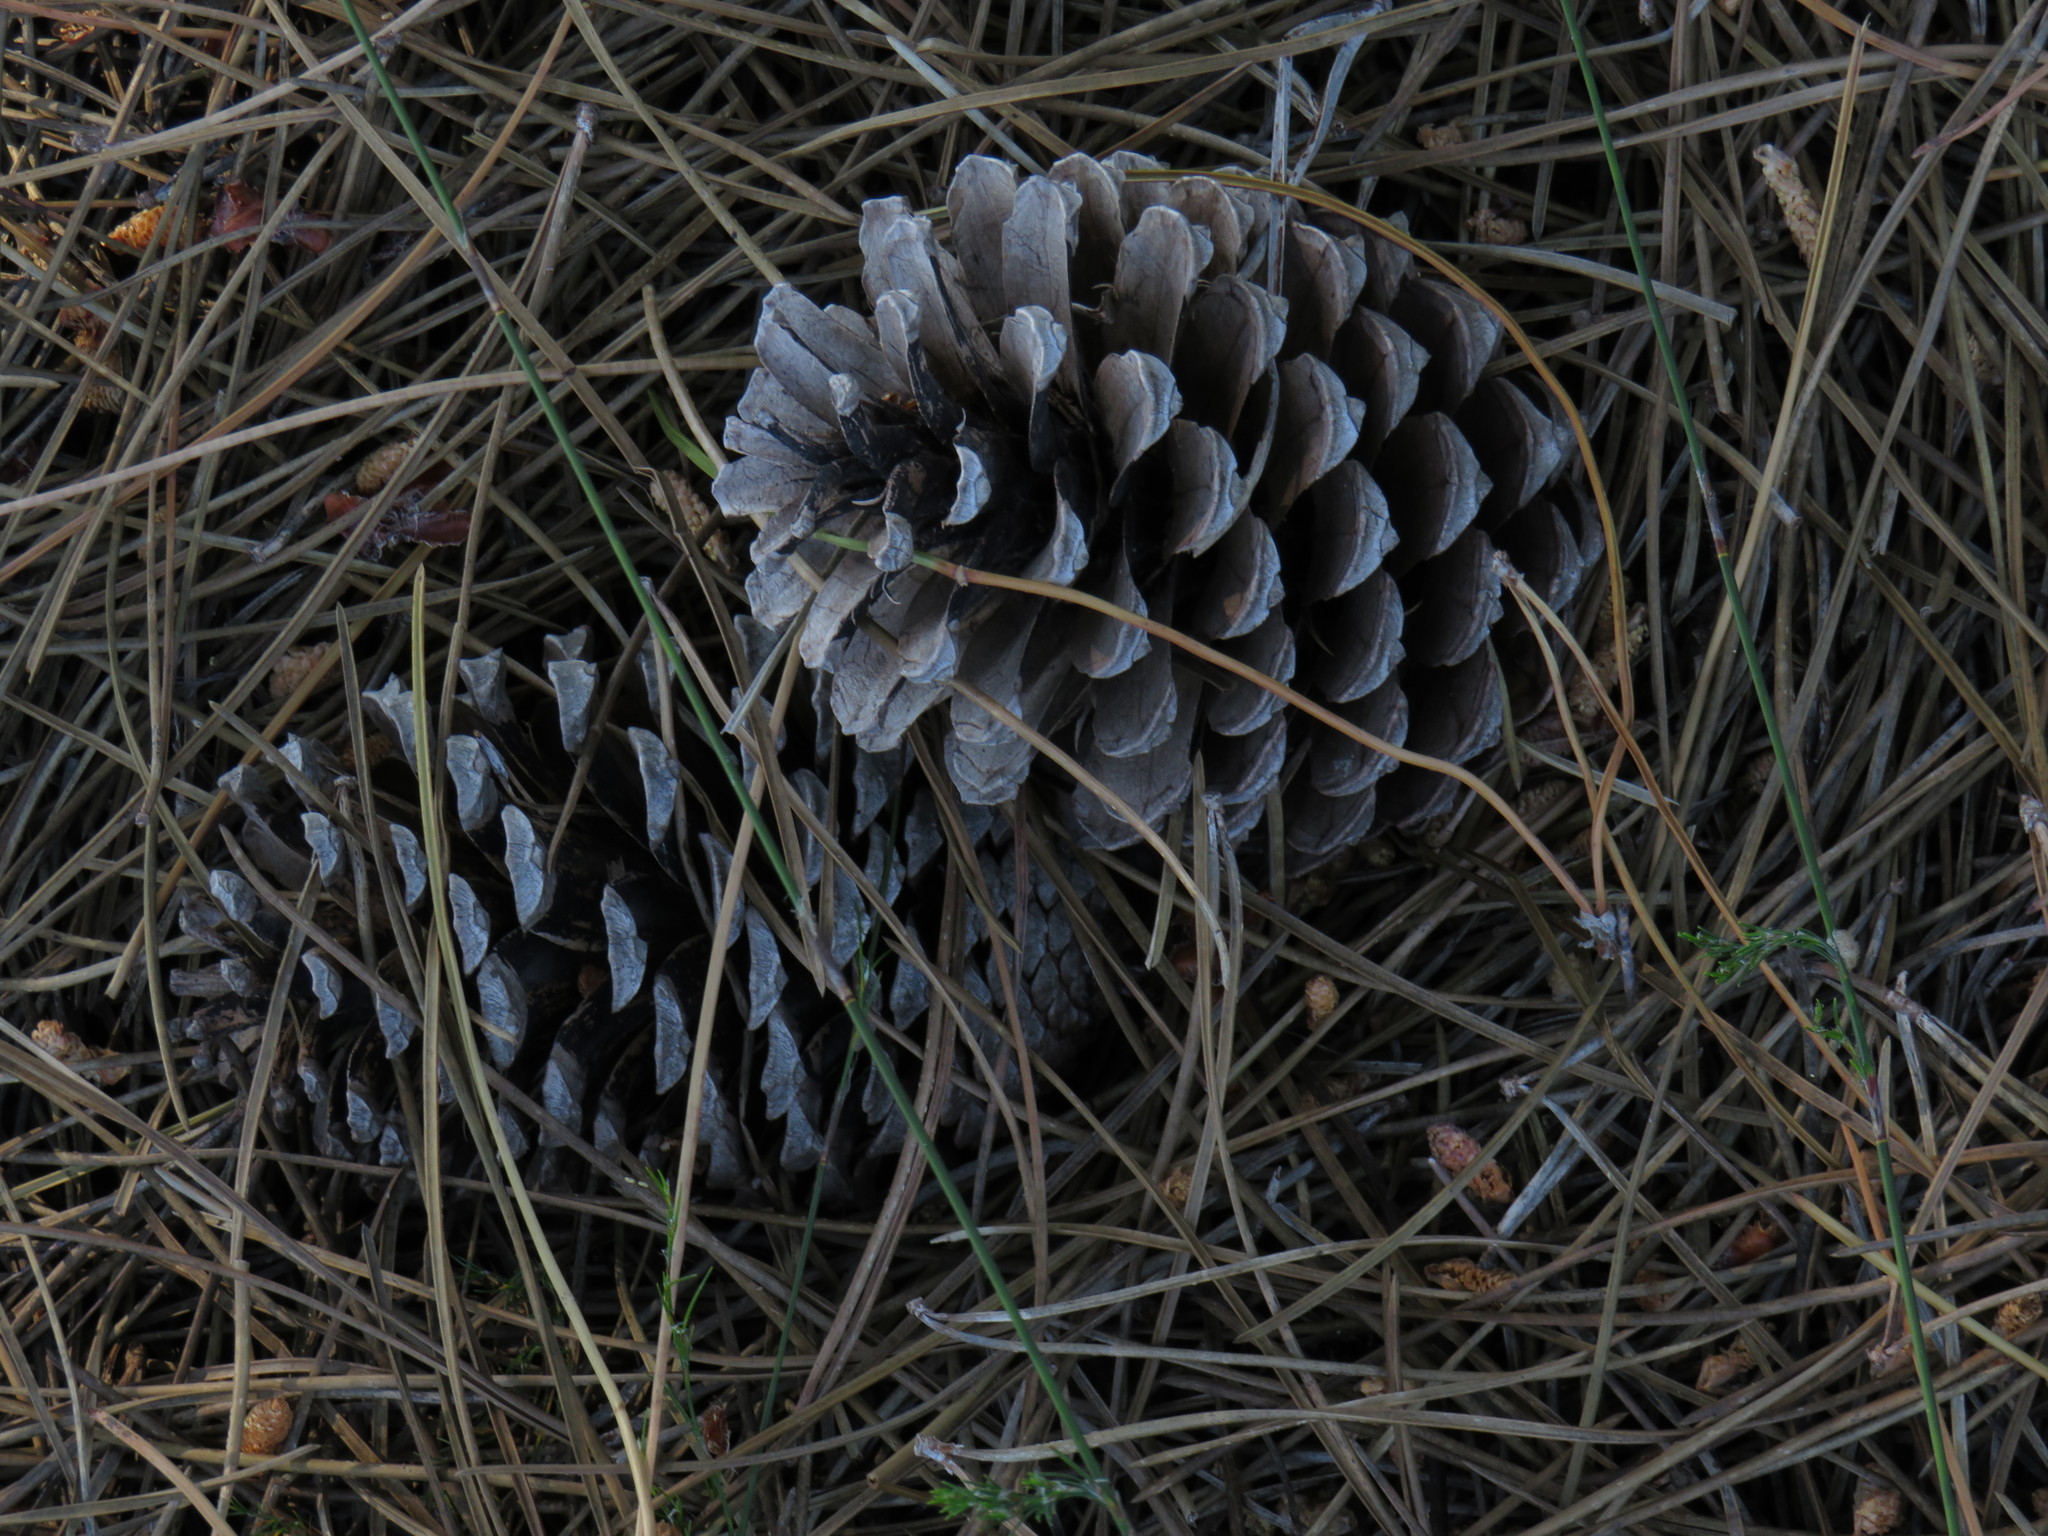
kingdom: Plantae
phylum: Tracheophyta
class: Pinopsida
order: Pinales
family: Pinaceae
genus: Pinus
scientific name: Pinus pinaster
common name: Maritime pine
